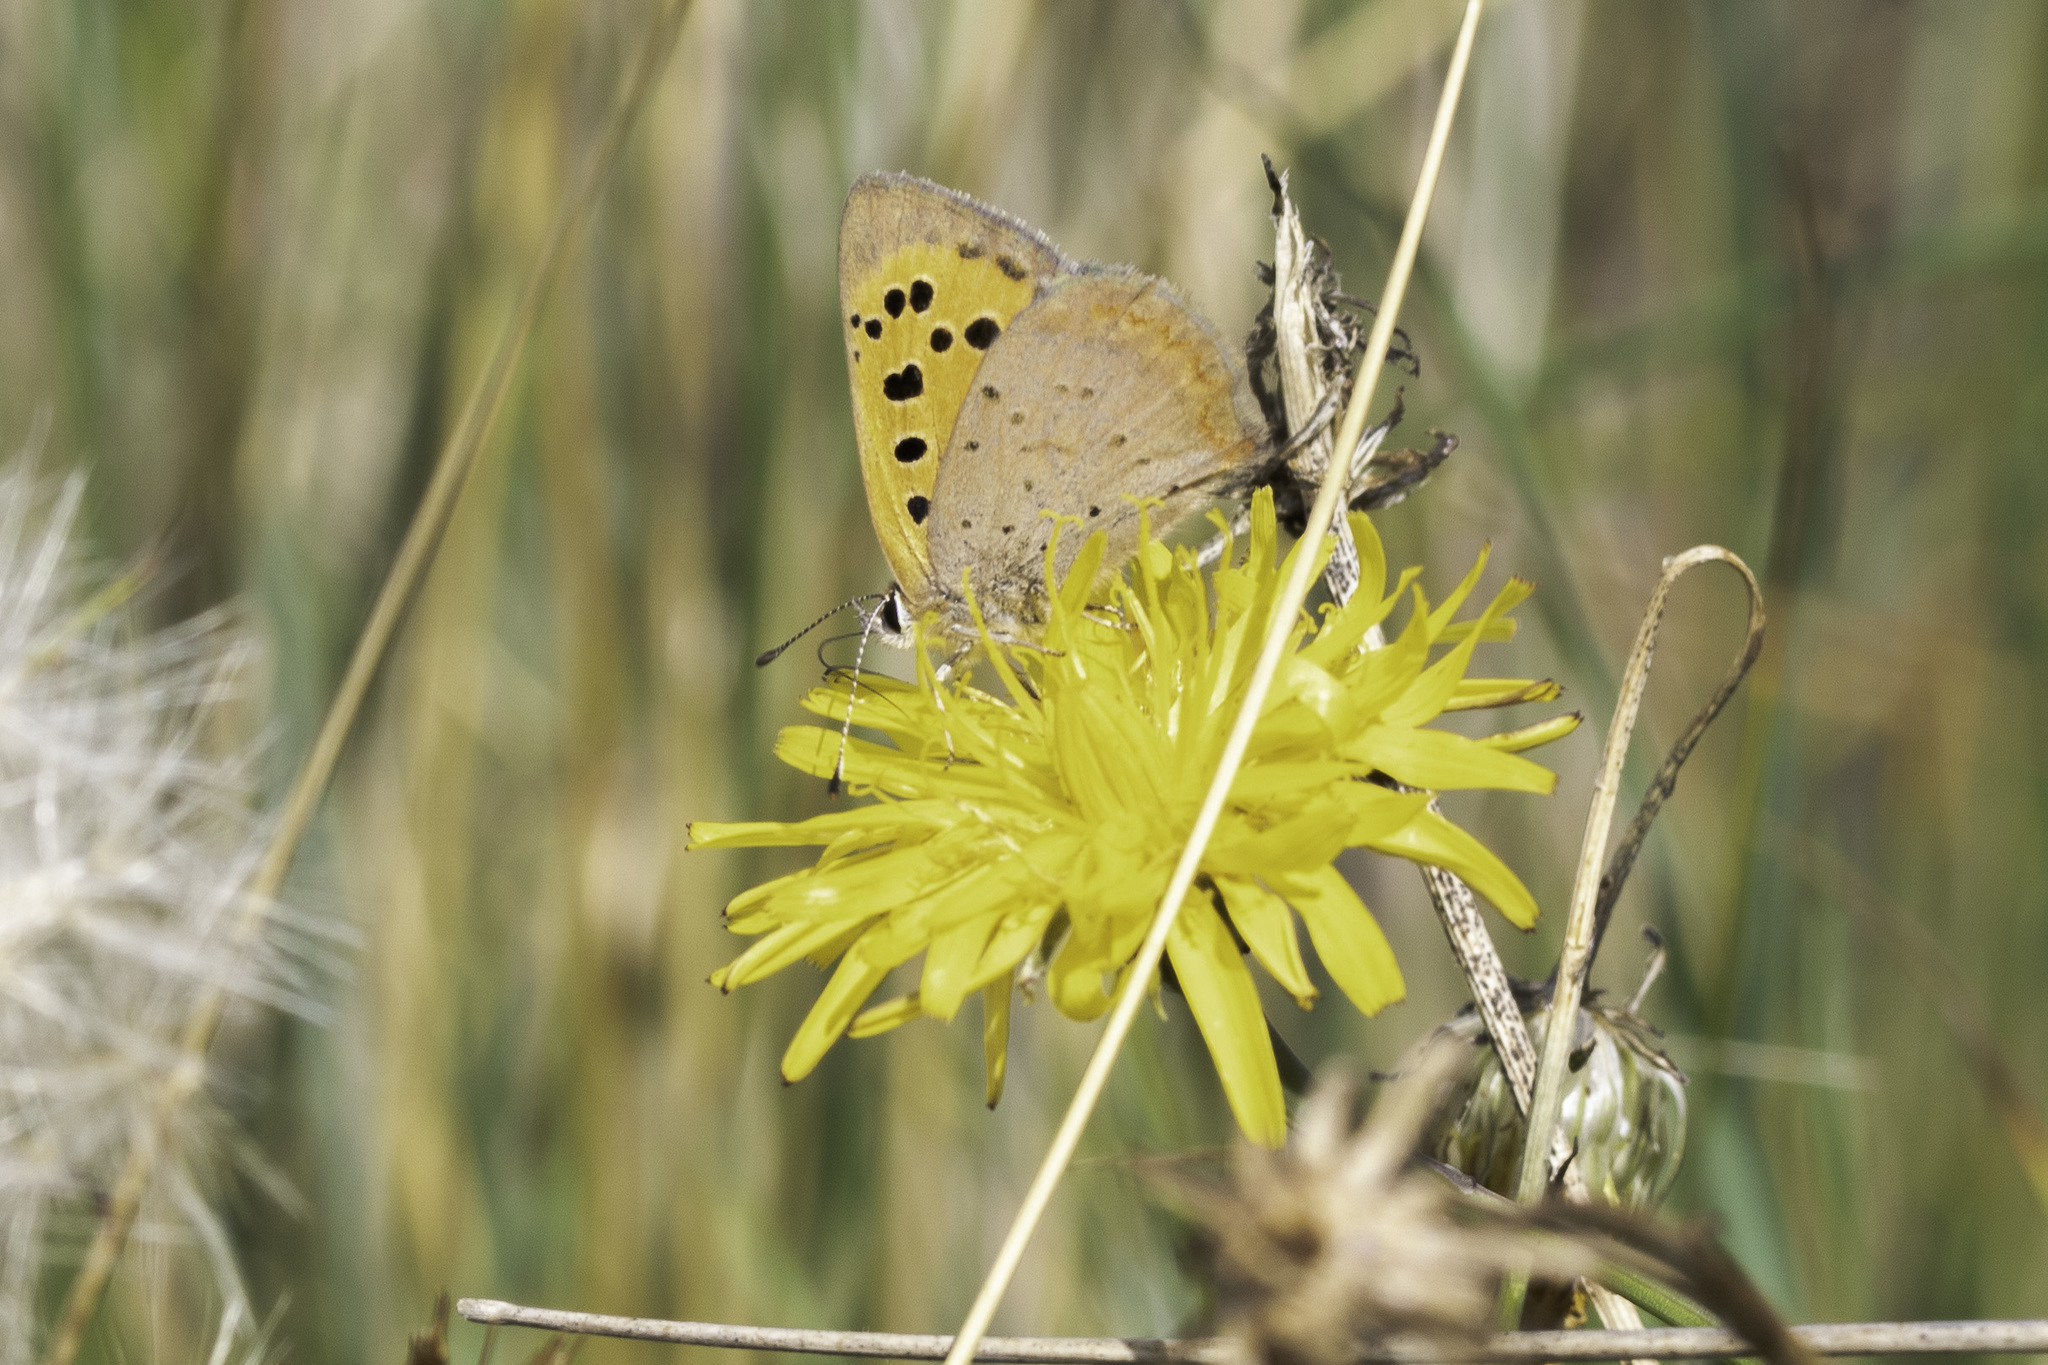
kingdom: Animalia
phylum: Arthropoda
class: Insecta
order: Lepidoptera
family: Lycaenidae
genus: Lycaena
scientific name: Lycaena phlaeas
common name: Small copper
